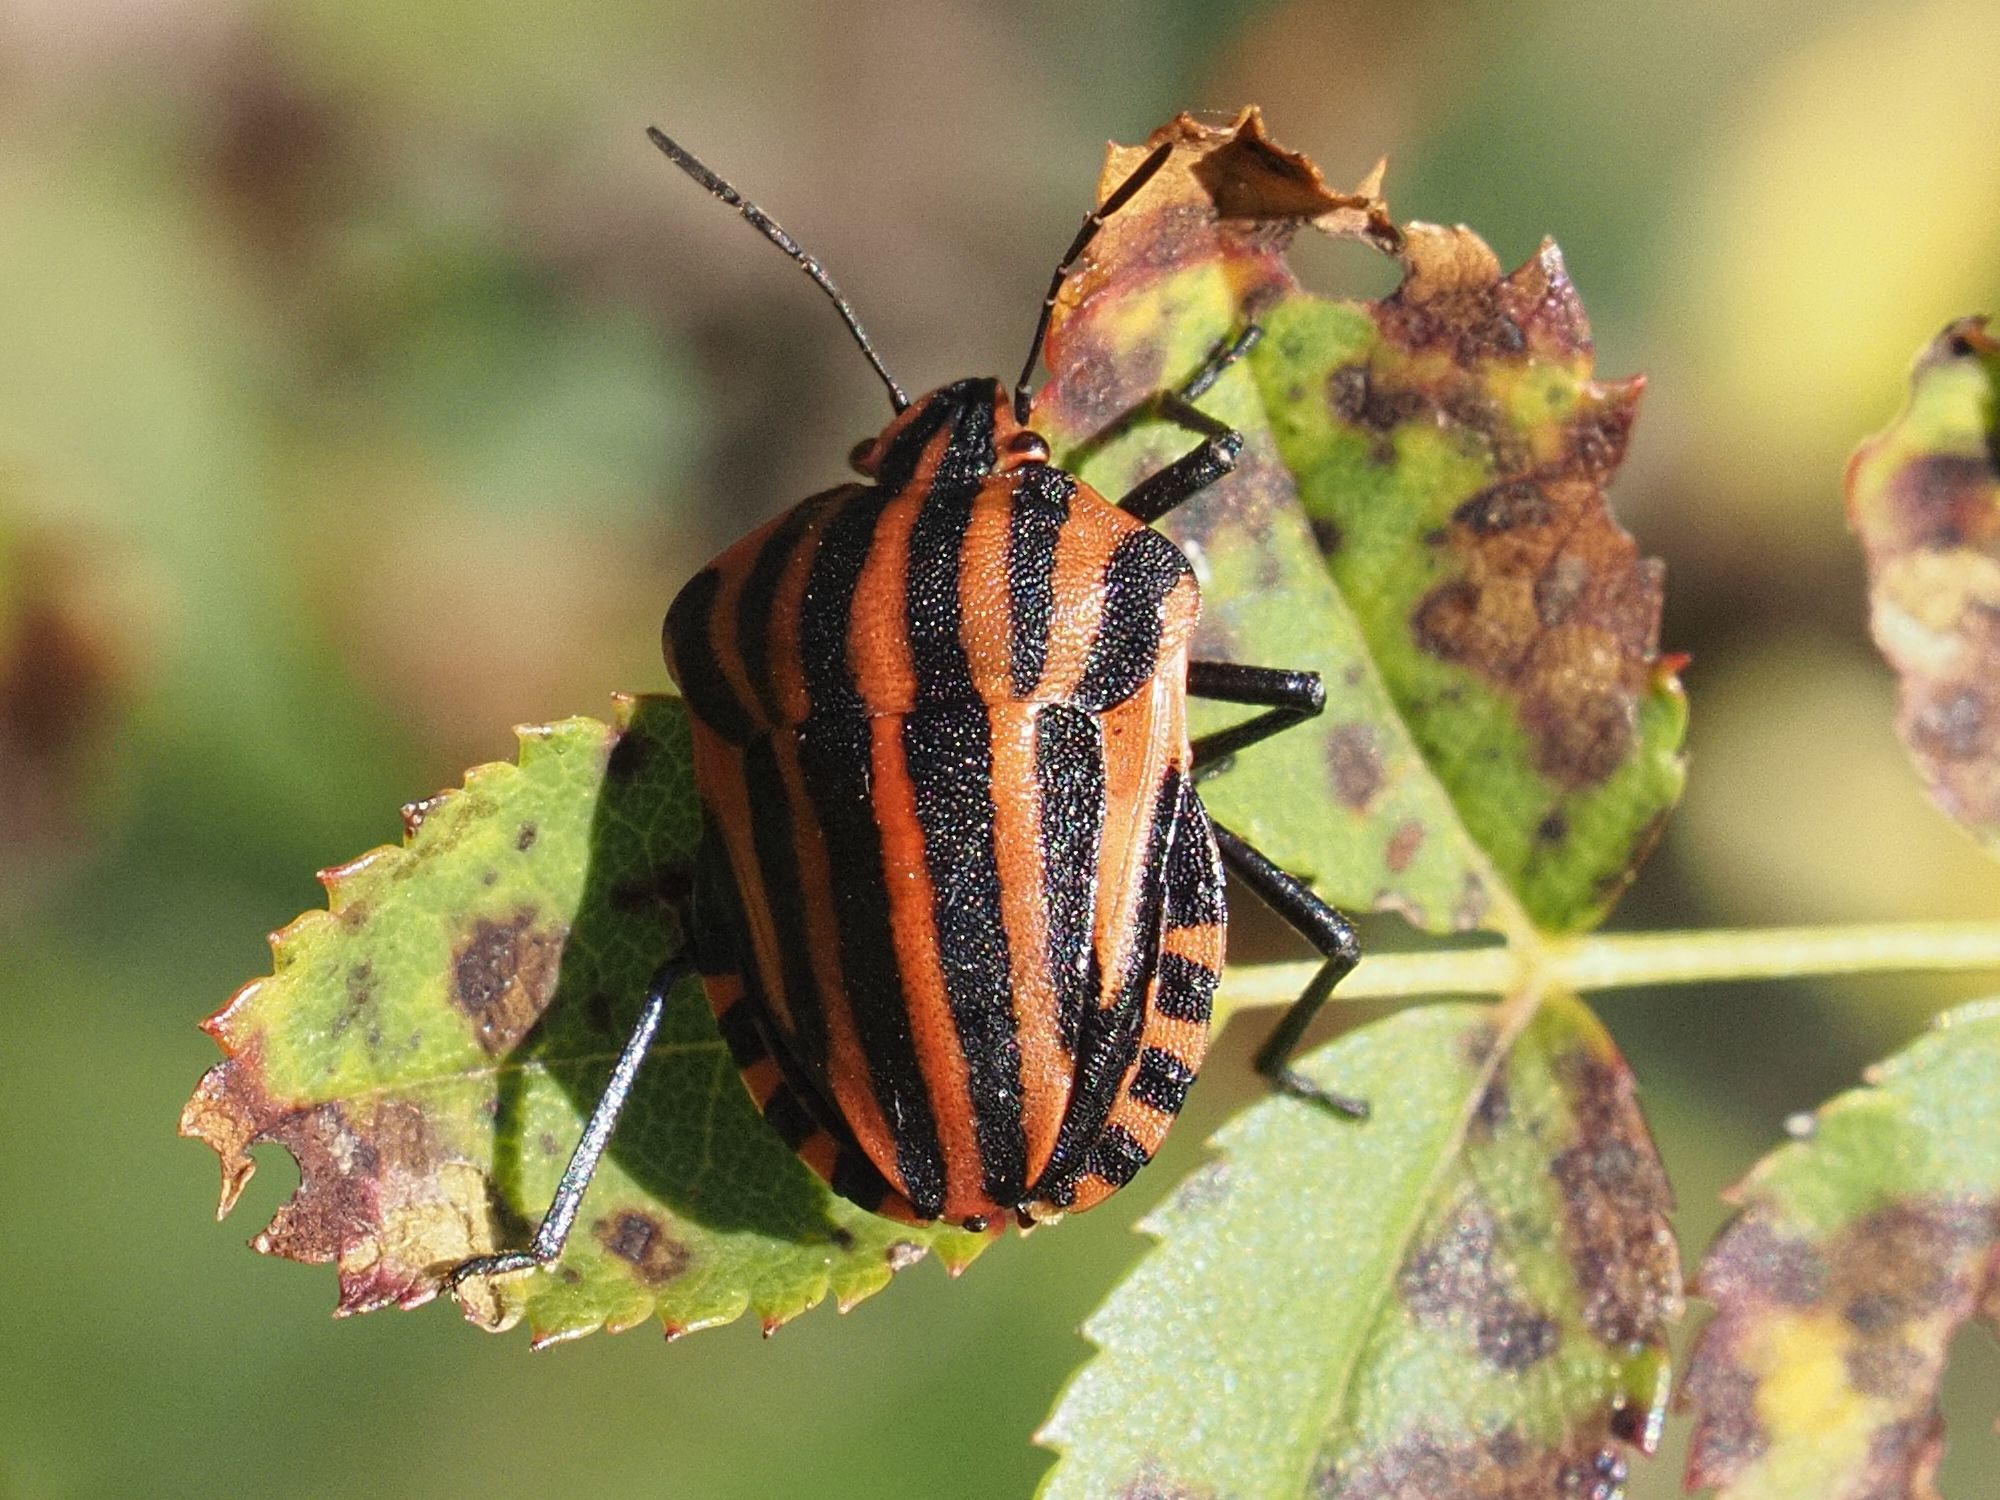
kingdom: Animalia
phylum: Arthropoda
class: Insecta
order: Hemiptera
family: Pentatomidae
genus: Graphosoma
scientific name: Graphosoma italicum
